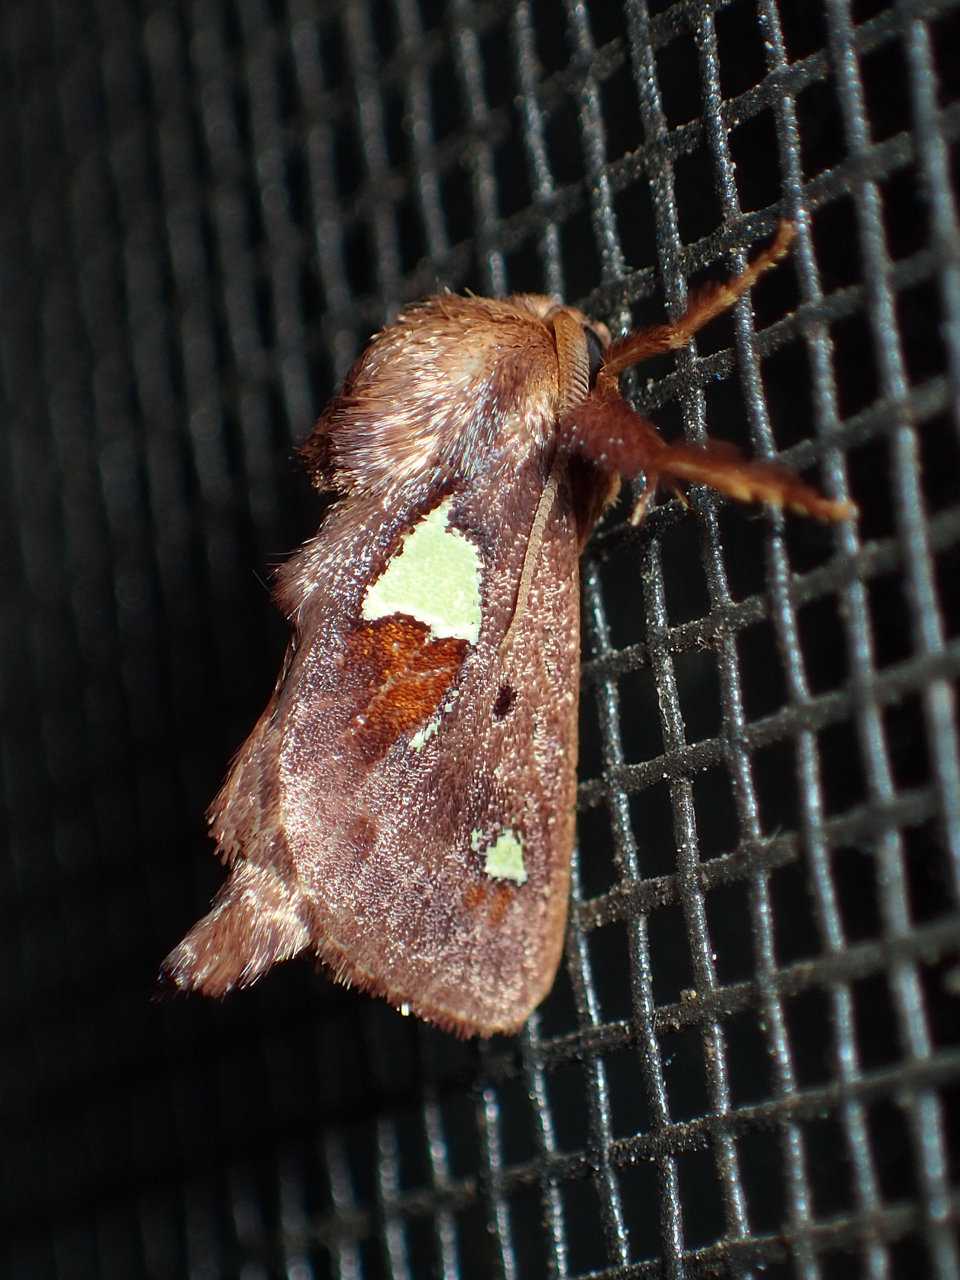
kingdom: Animalia
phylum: Arthropoda
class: Insecta
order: Lepidoptera
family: Limacodidae
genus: Euclea
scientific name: Euclea delphinii
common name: Spiny oak-slug moth
